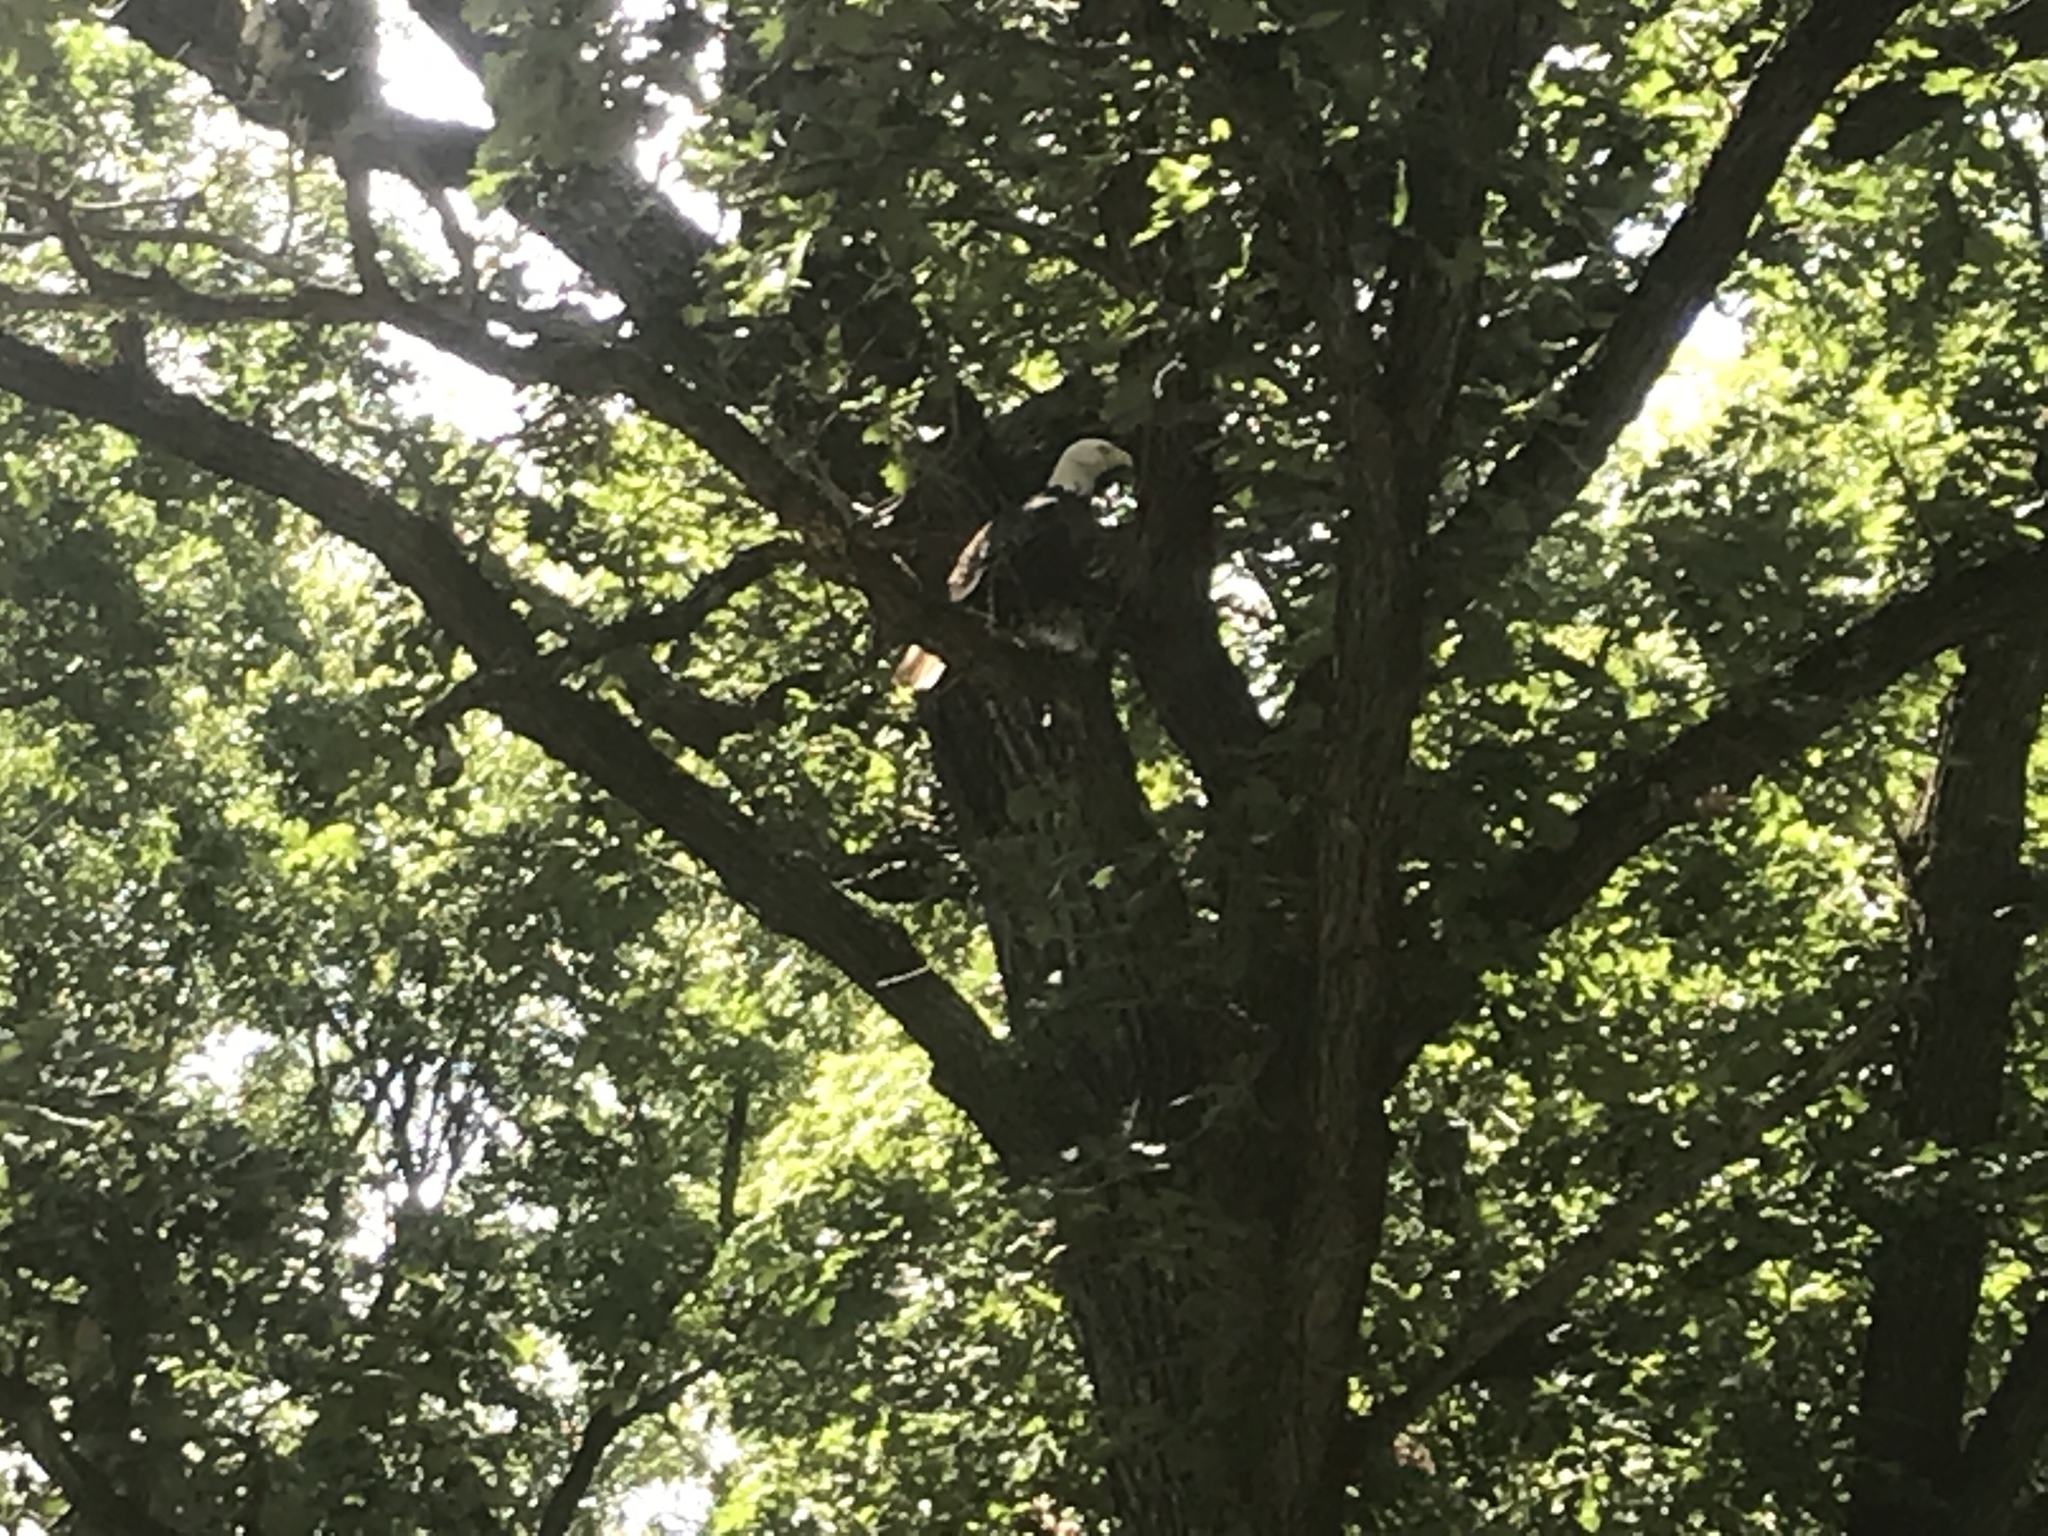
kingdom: Animalia
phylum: Chordata
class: Aves
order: Accipitriformes
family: Accipitridae
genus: Haliaeetus
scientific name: Haliaeetus leucocephalus
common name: Bald eagle
